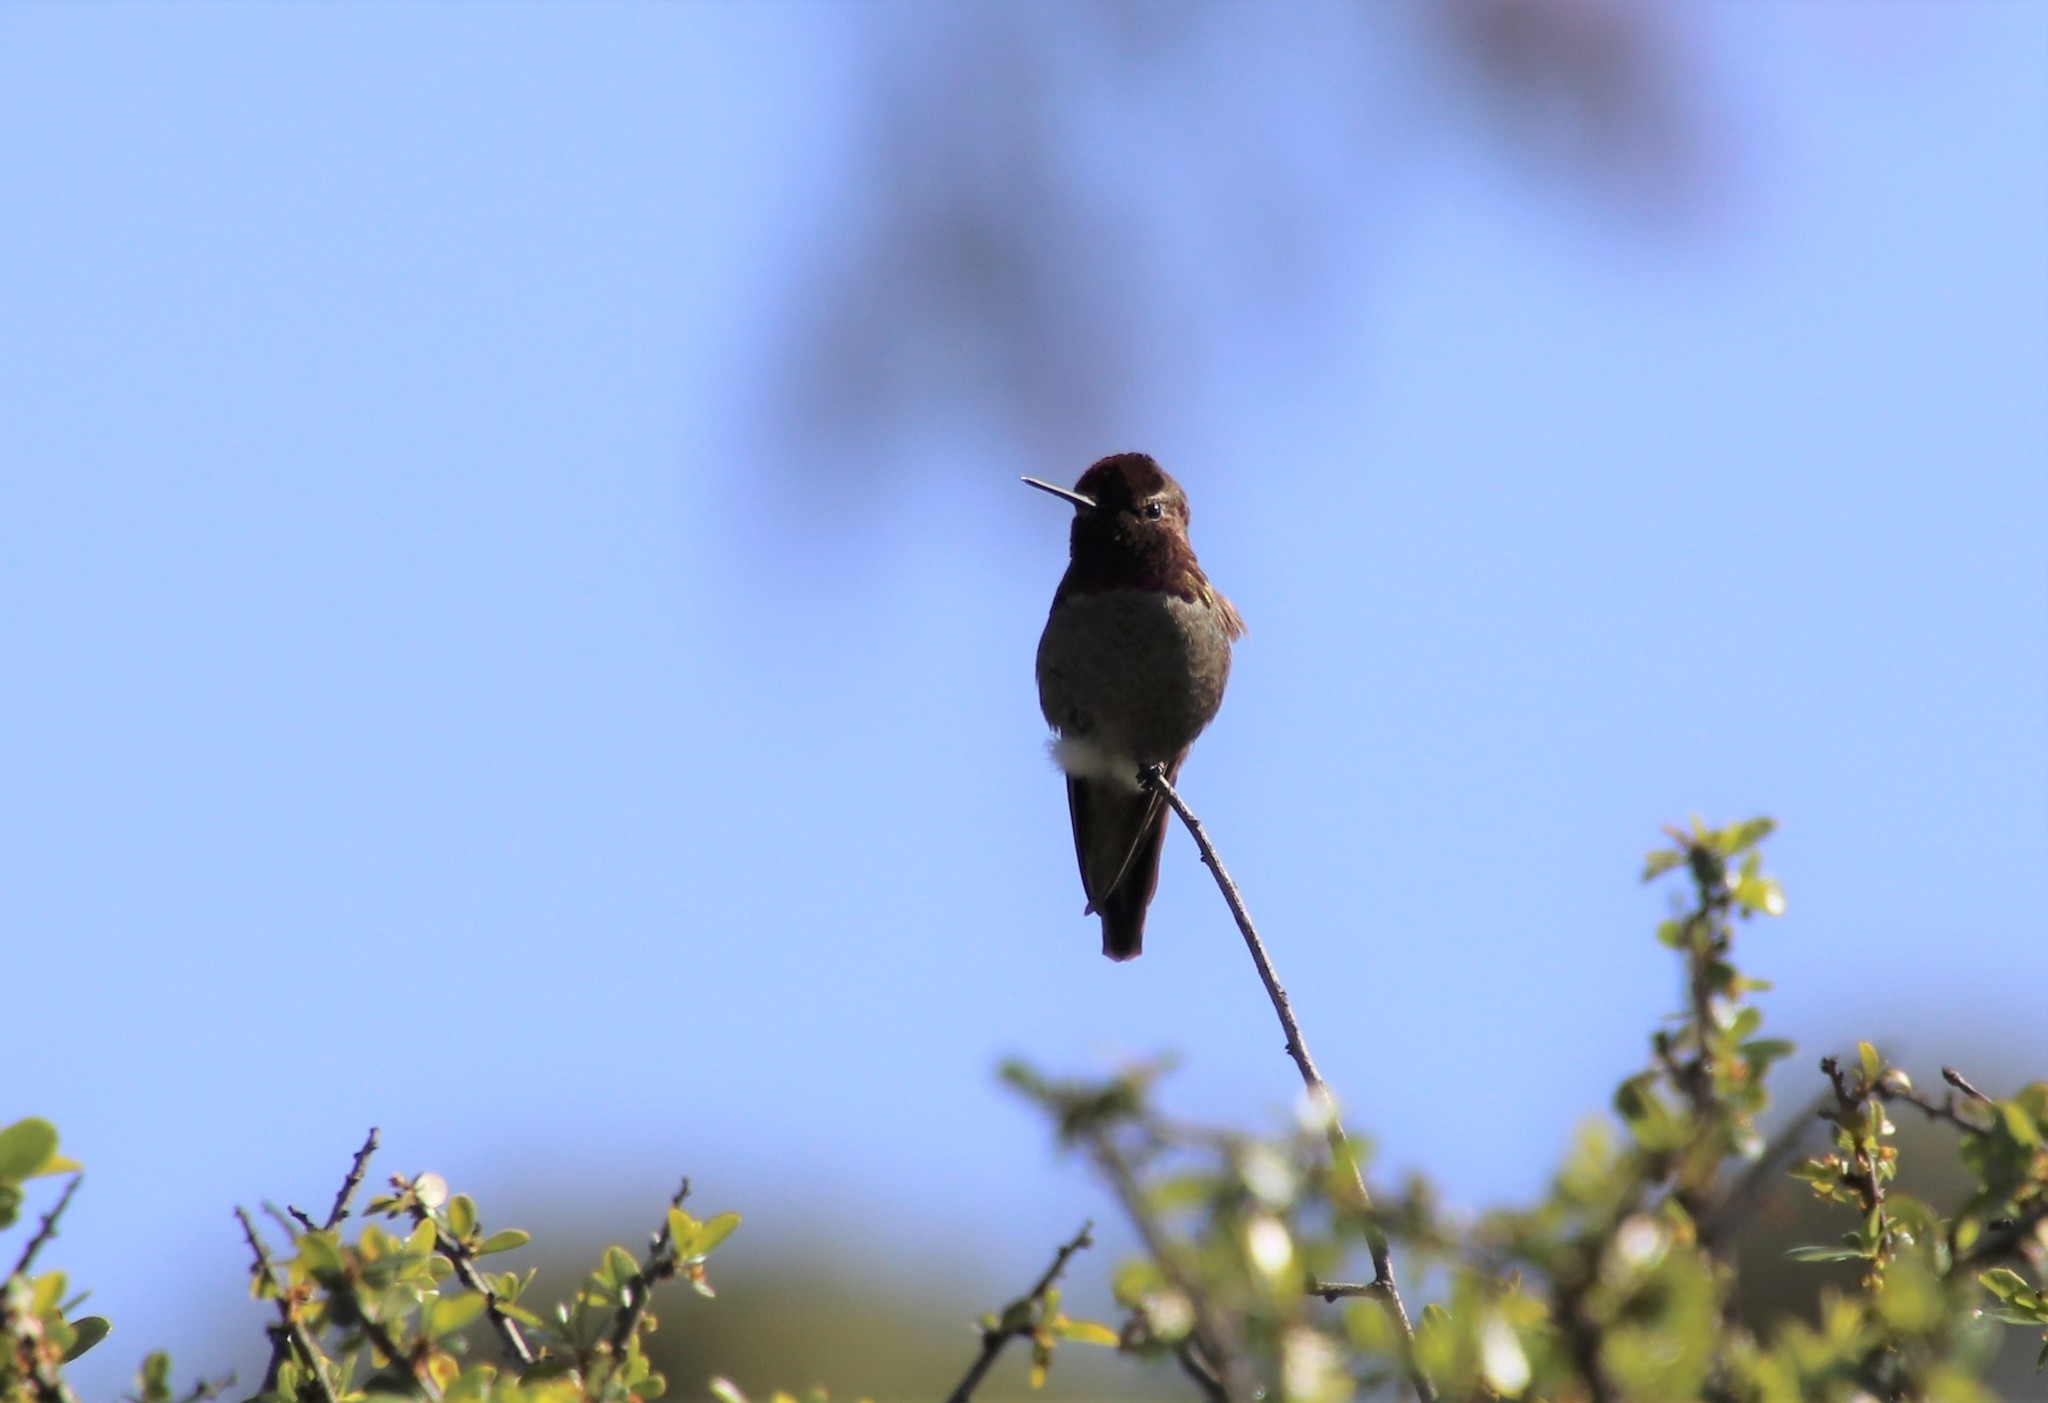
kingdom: Animalia
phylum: Chordata
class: Aves
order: Apodiformes
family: Trochilidae
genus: Calypte
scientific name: Calypte anna
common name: Anna's hummingbird
